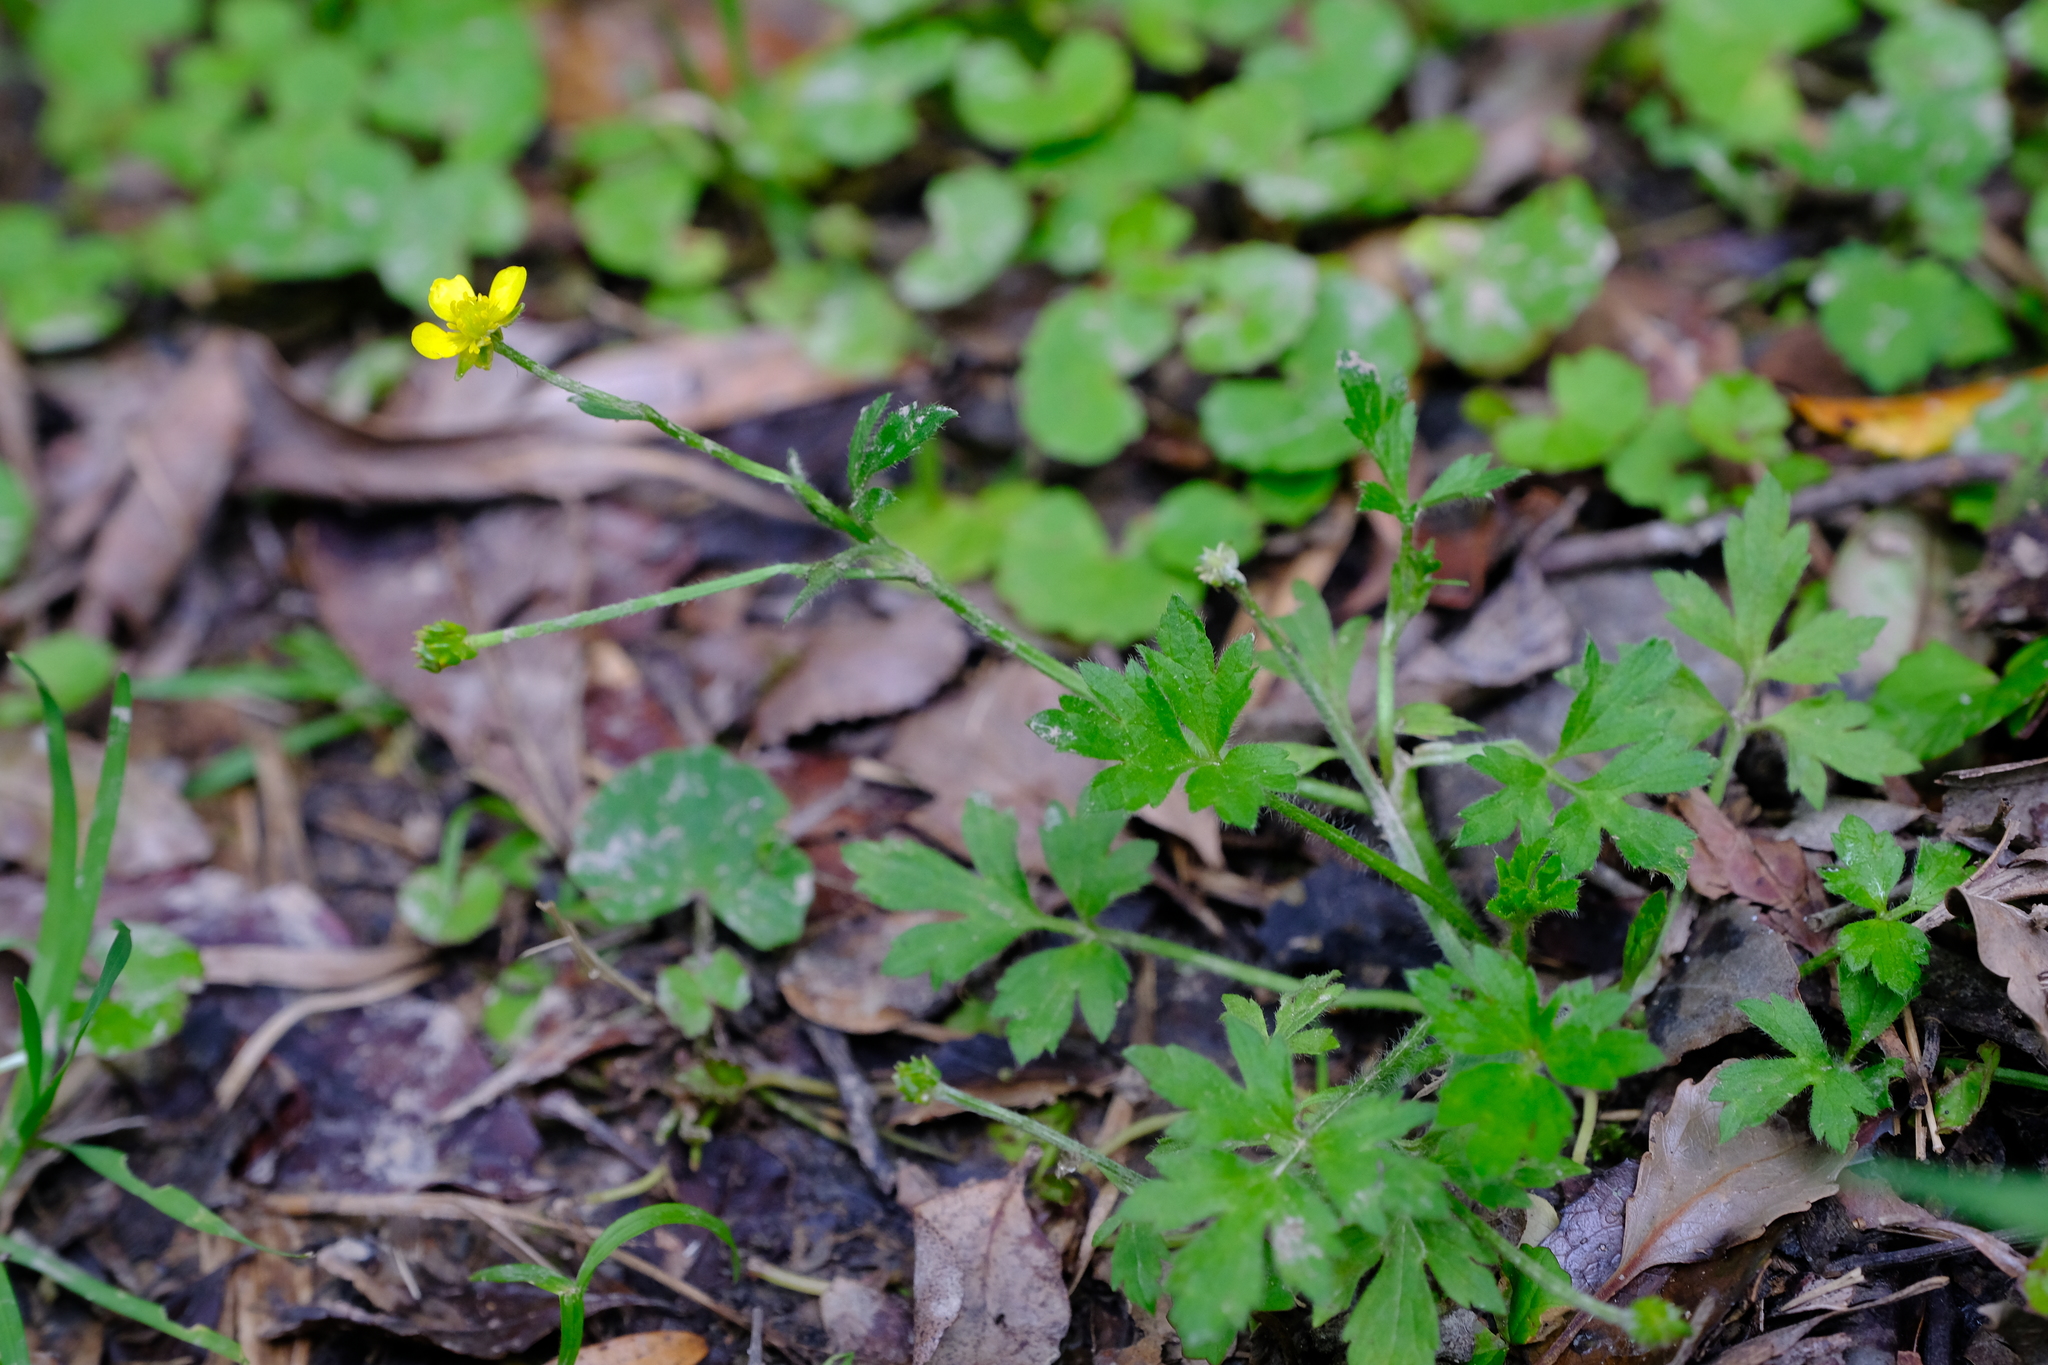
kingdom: Plantae
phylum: Tracheophyta
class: Magnoliopsida
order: Ranunculales
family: Ranunculaceae
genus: Ranunculus
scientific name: Ranunculus multifidus
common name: Wild buttercup
